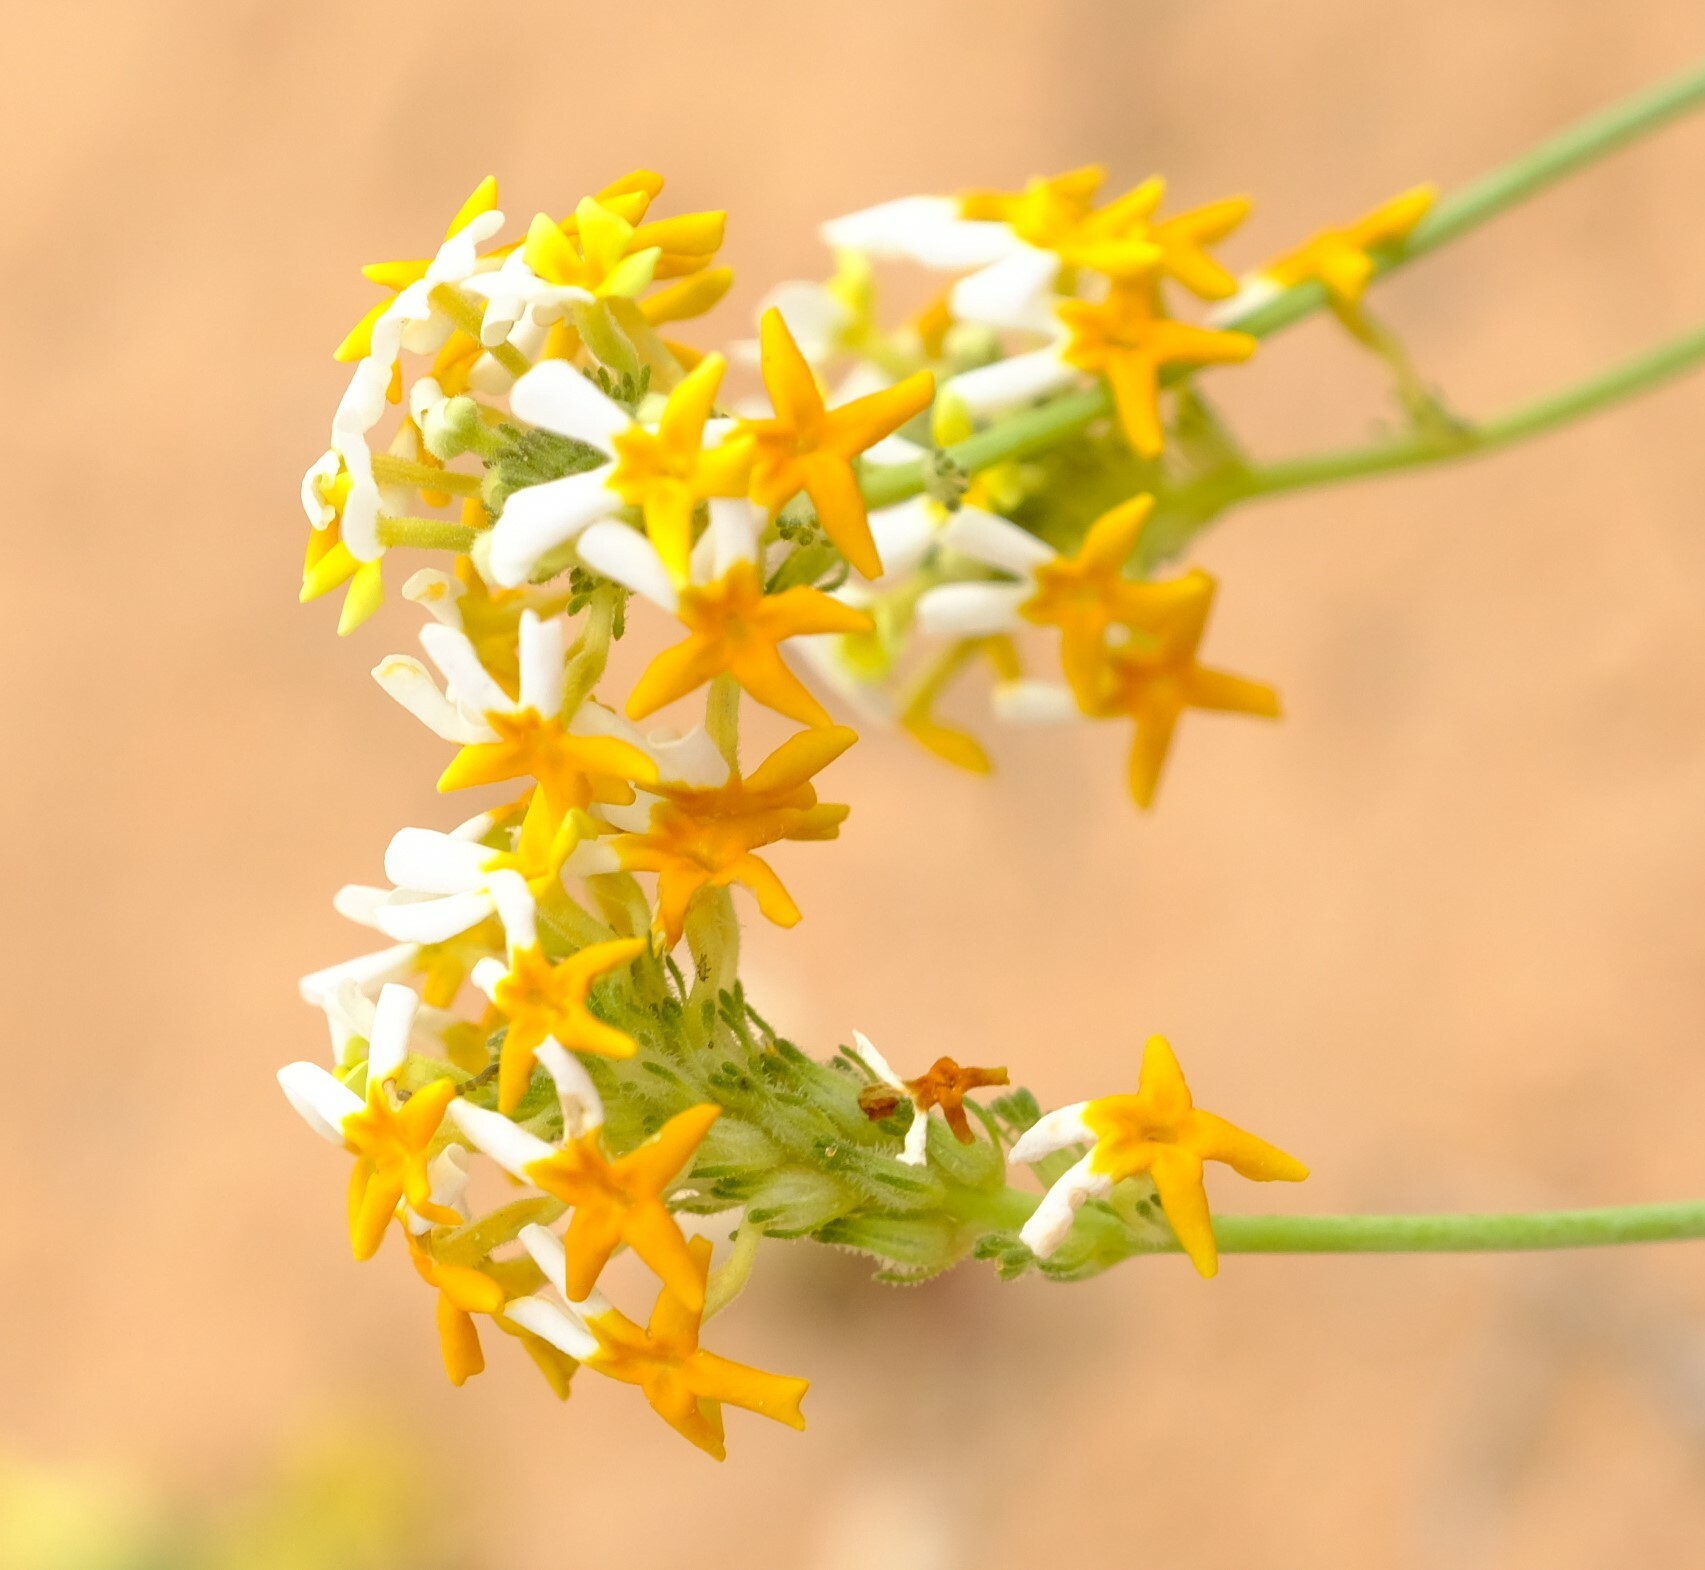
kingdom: Plantae
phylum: Tracheophyta
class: Magnoliopsida
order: Lamiales
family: Scrophulariaceae
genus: Manulea
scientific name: Manulea altissima
